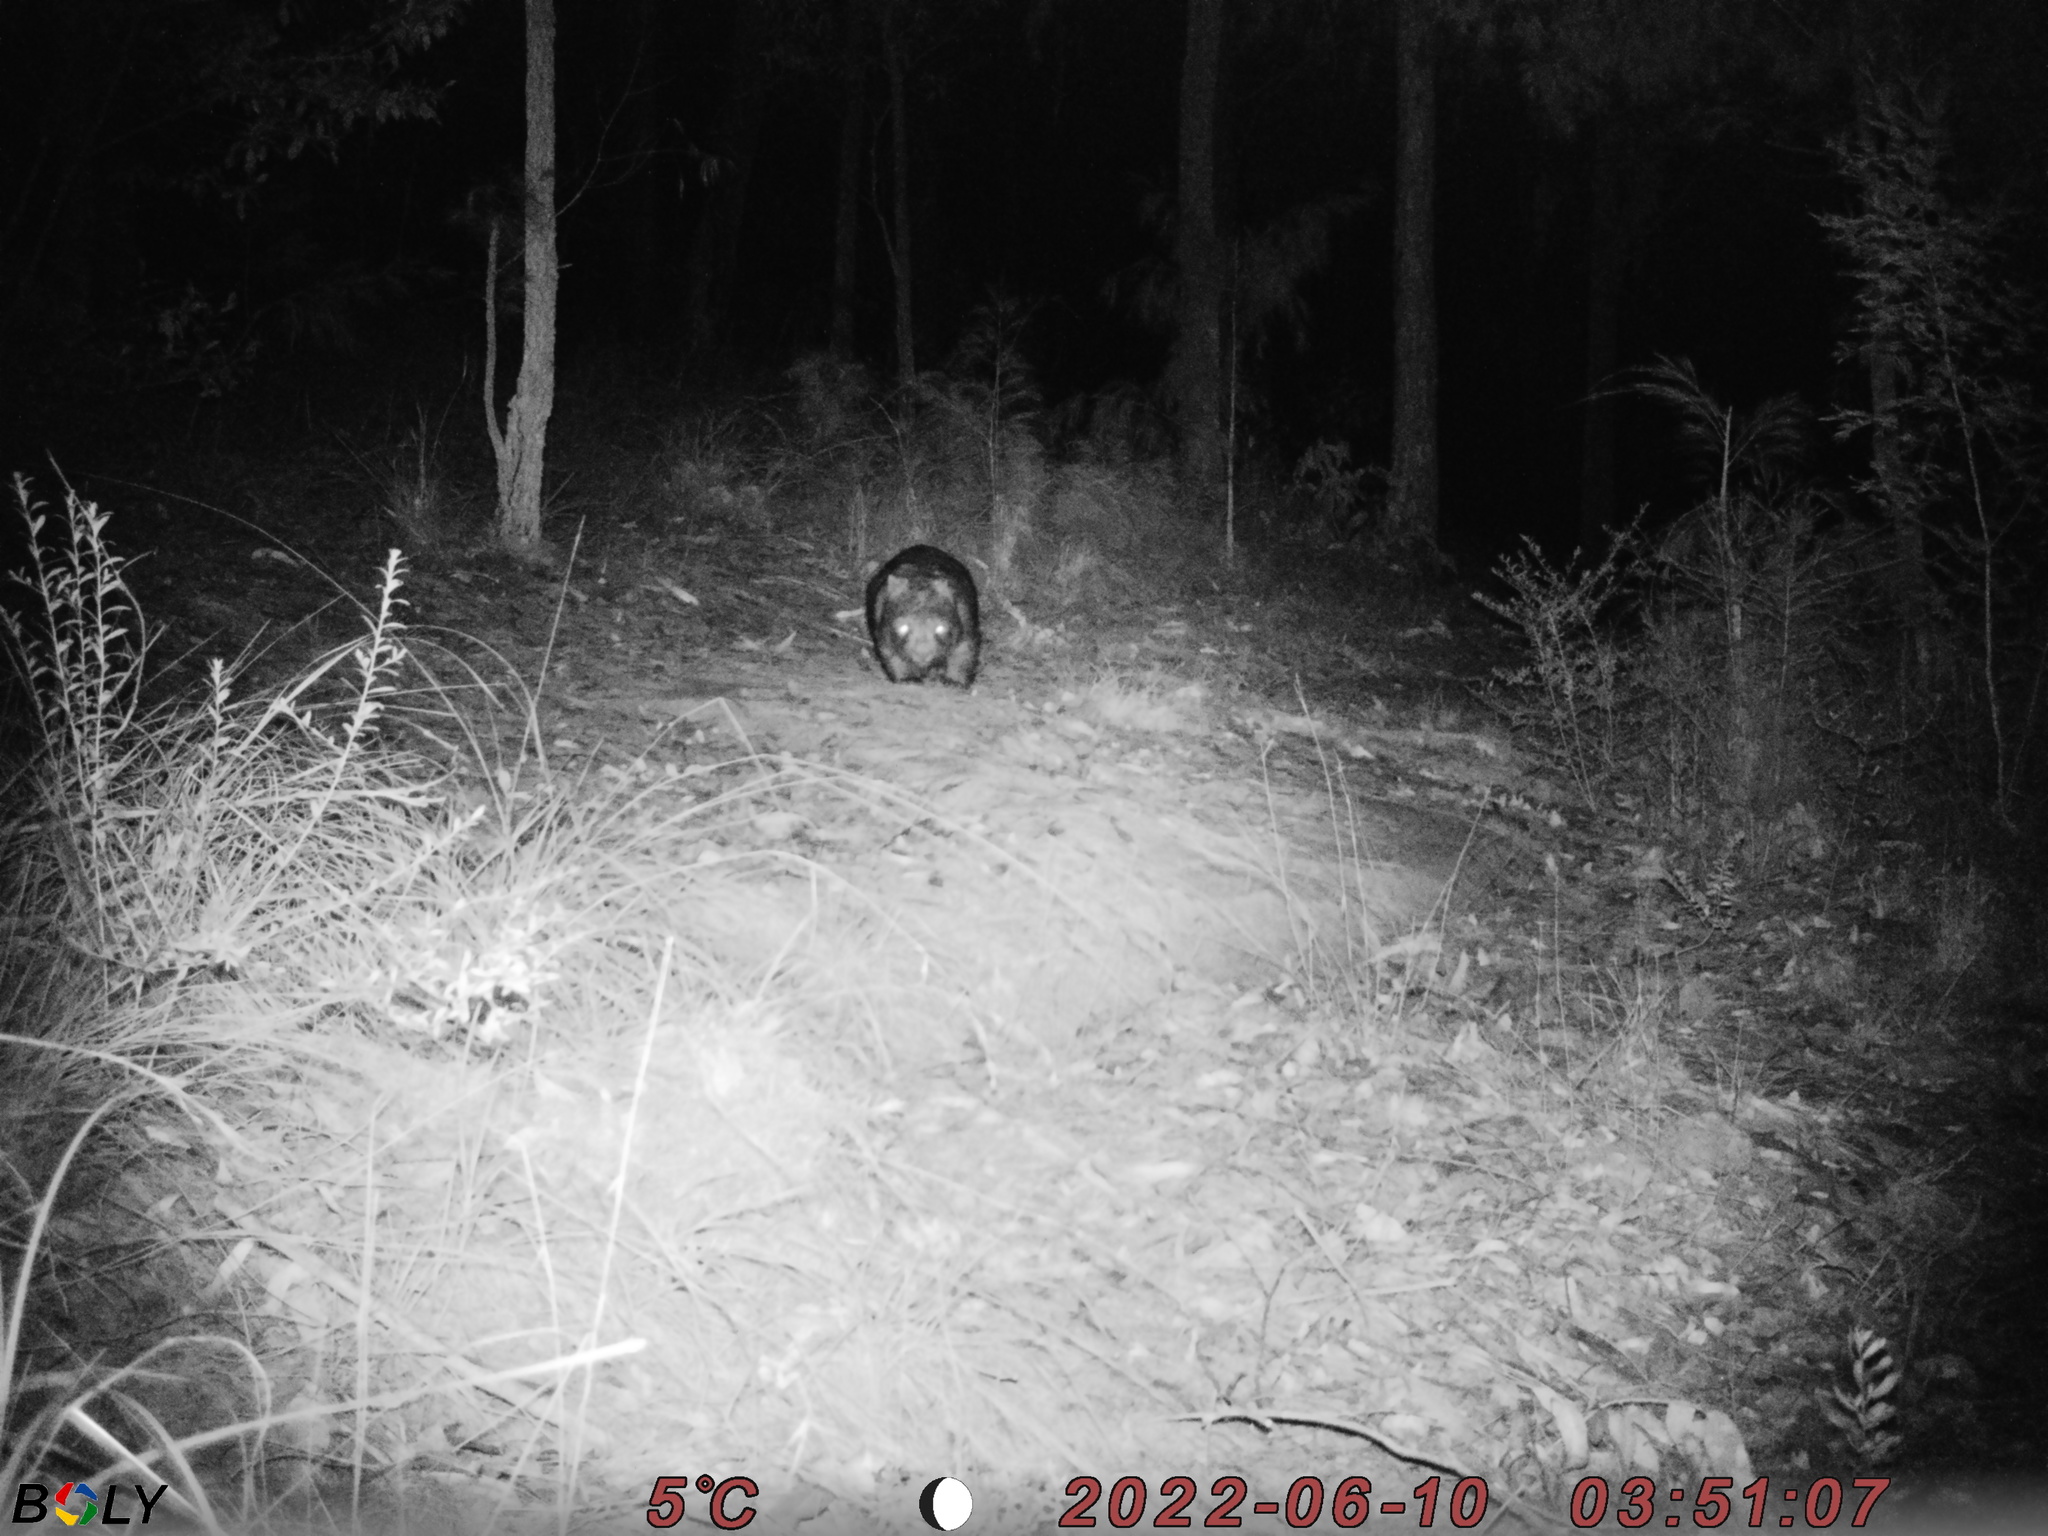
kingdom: Animalia
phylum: Chordata
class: Mammalia
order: Diprotodontia
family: Vombatidae
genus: Vombatus
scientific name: Vombatus ursinus
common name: Common wombat
